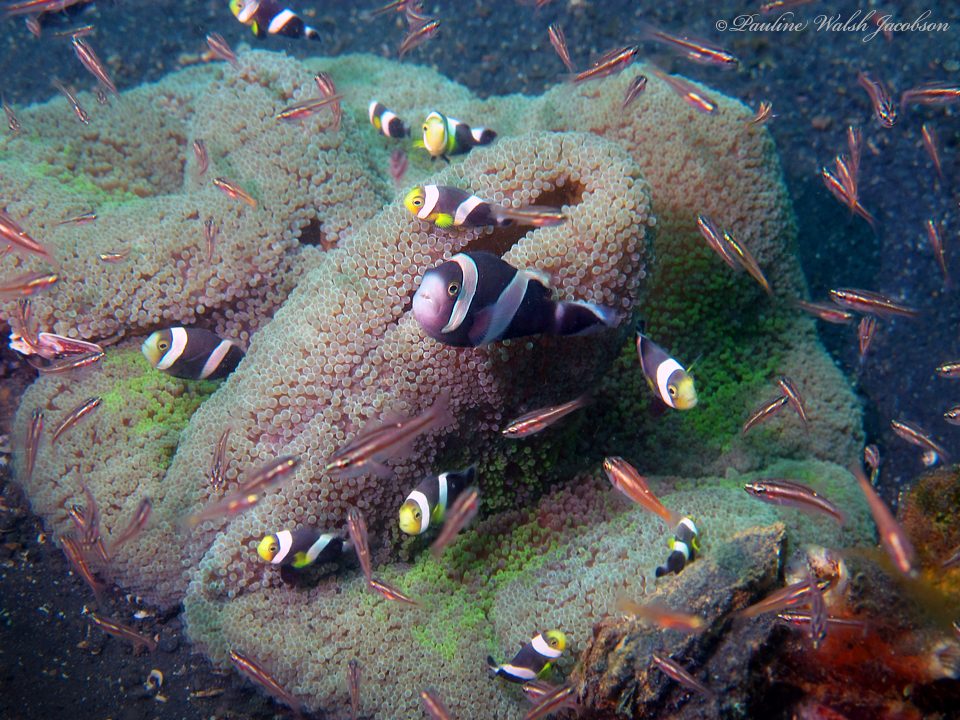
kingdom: Animalia
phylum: Chordata
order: Perciformes
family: Pomacentridae
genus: Amphiprion
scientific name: Amphiprion polymnus
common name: Saddleback anemonefish
